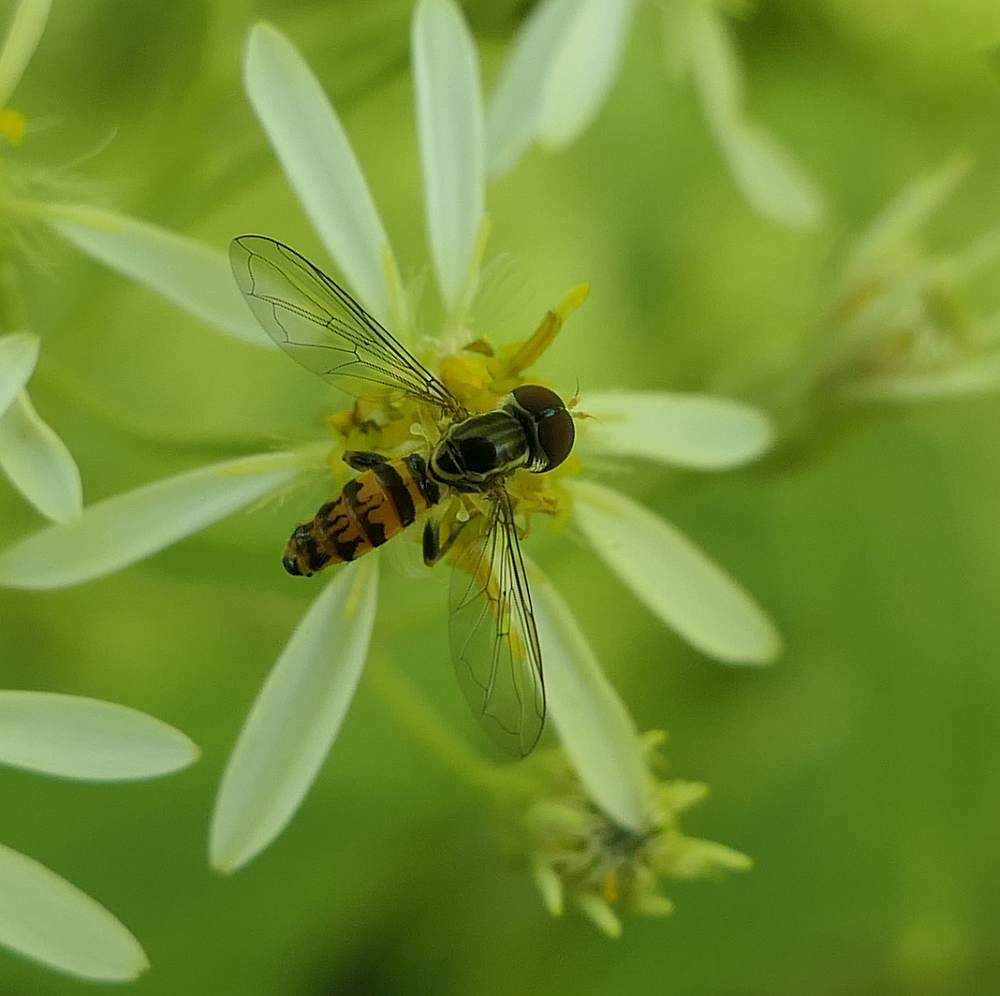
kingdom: Animalia
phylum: Arthropoda
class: Insecta
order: Diptera
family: Syrphidae
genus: Toxomerus
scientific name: Toxomerus geminatus
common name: Eastern calligrapher
